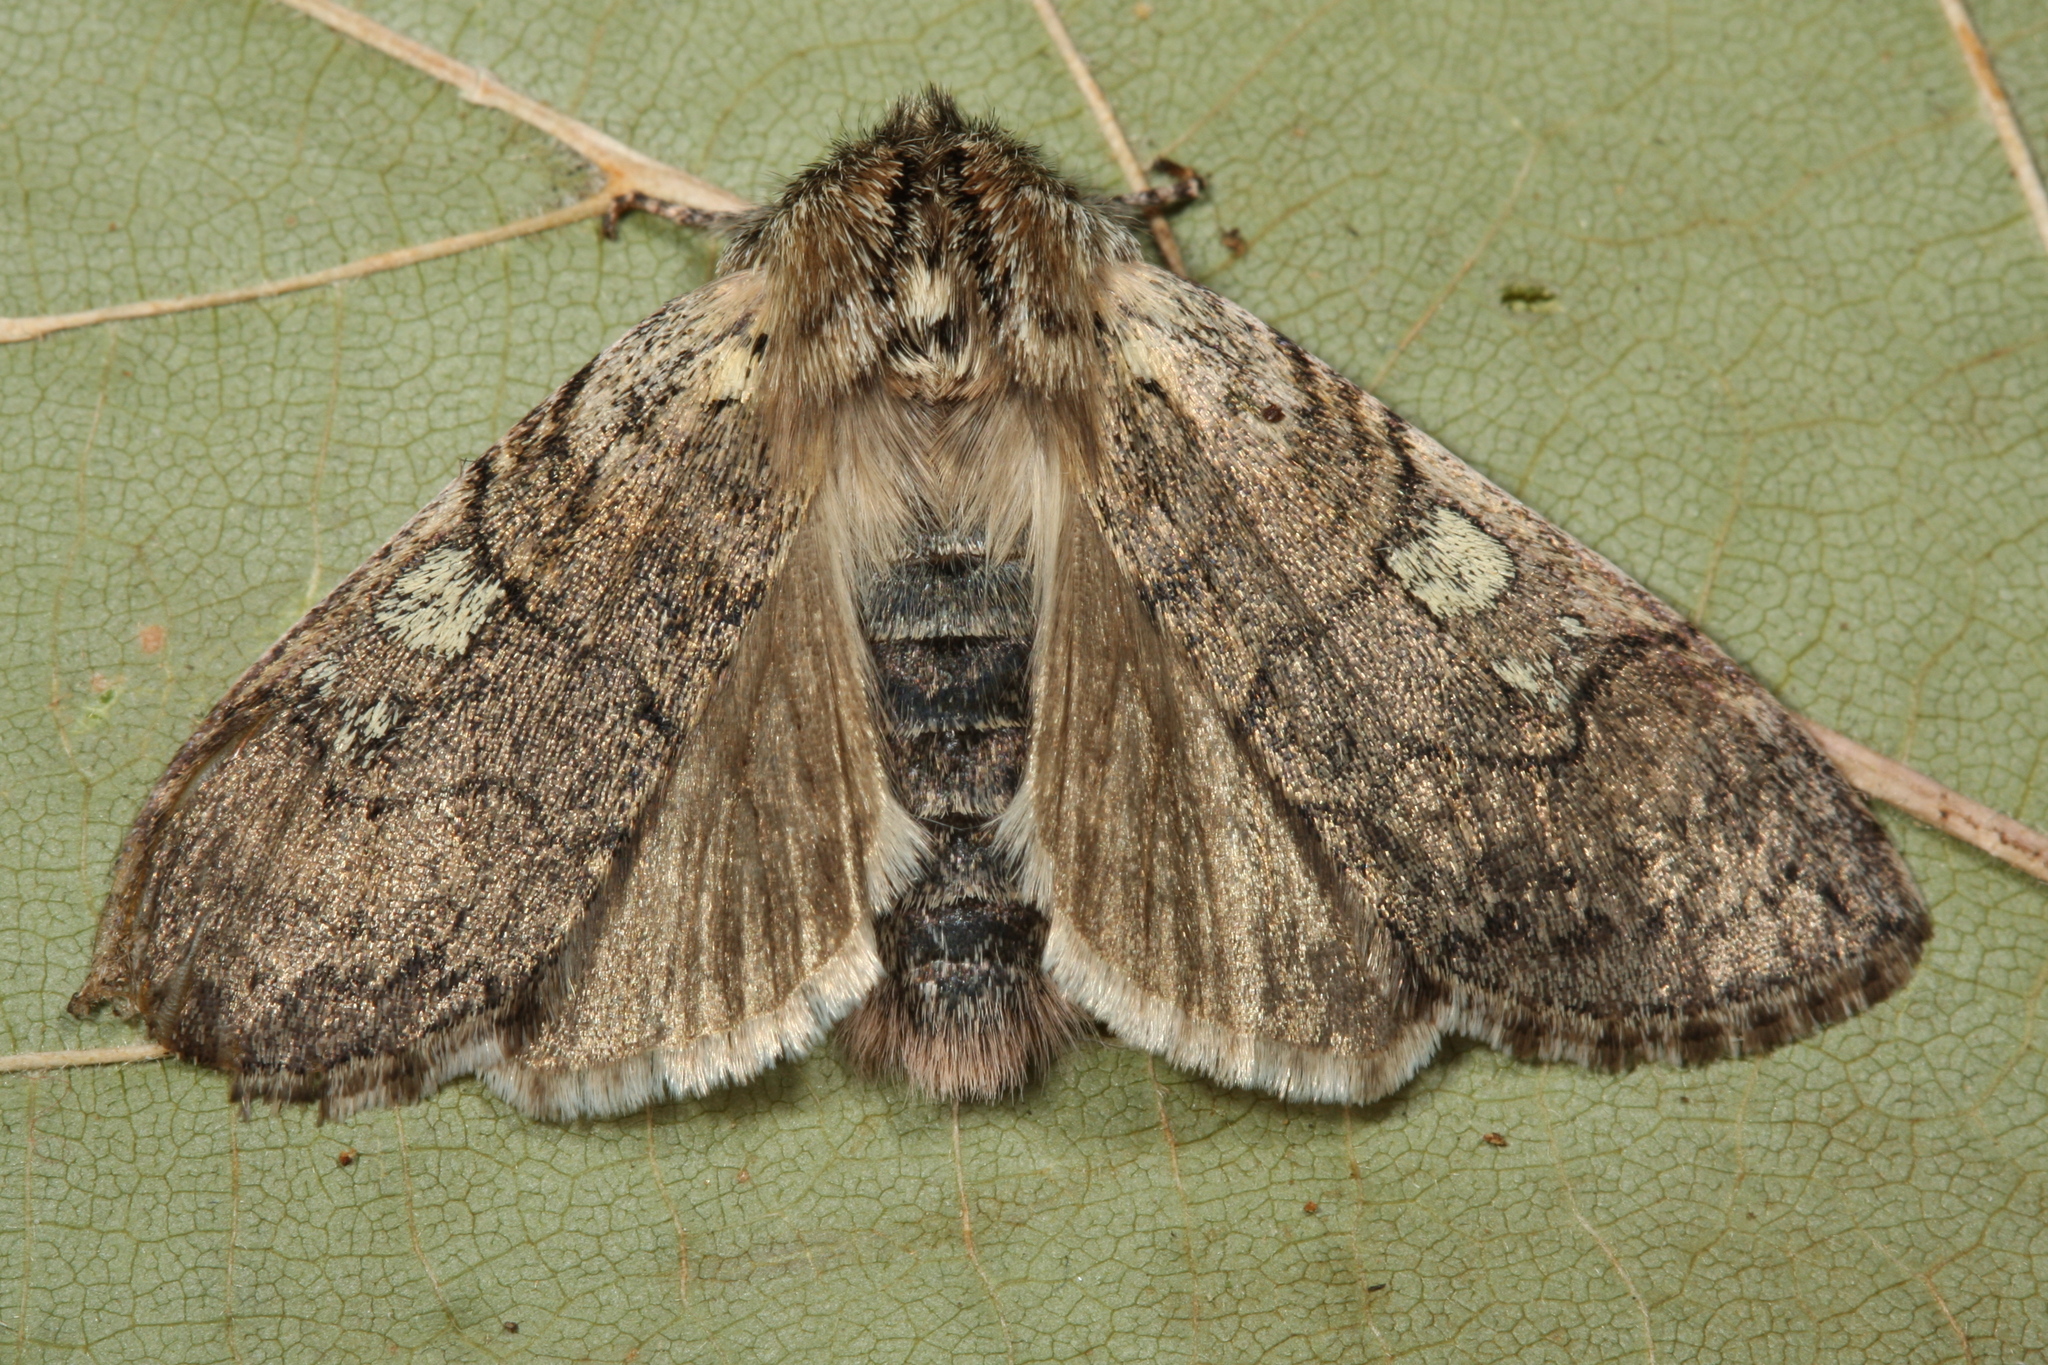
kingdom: Animalia
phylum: Arthropoda
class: Insecta
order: Lepidoptera
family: Drepanidae
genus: Achlya
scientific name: Achlya flavicornis
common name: Yellow horned
